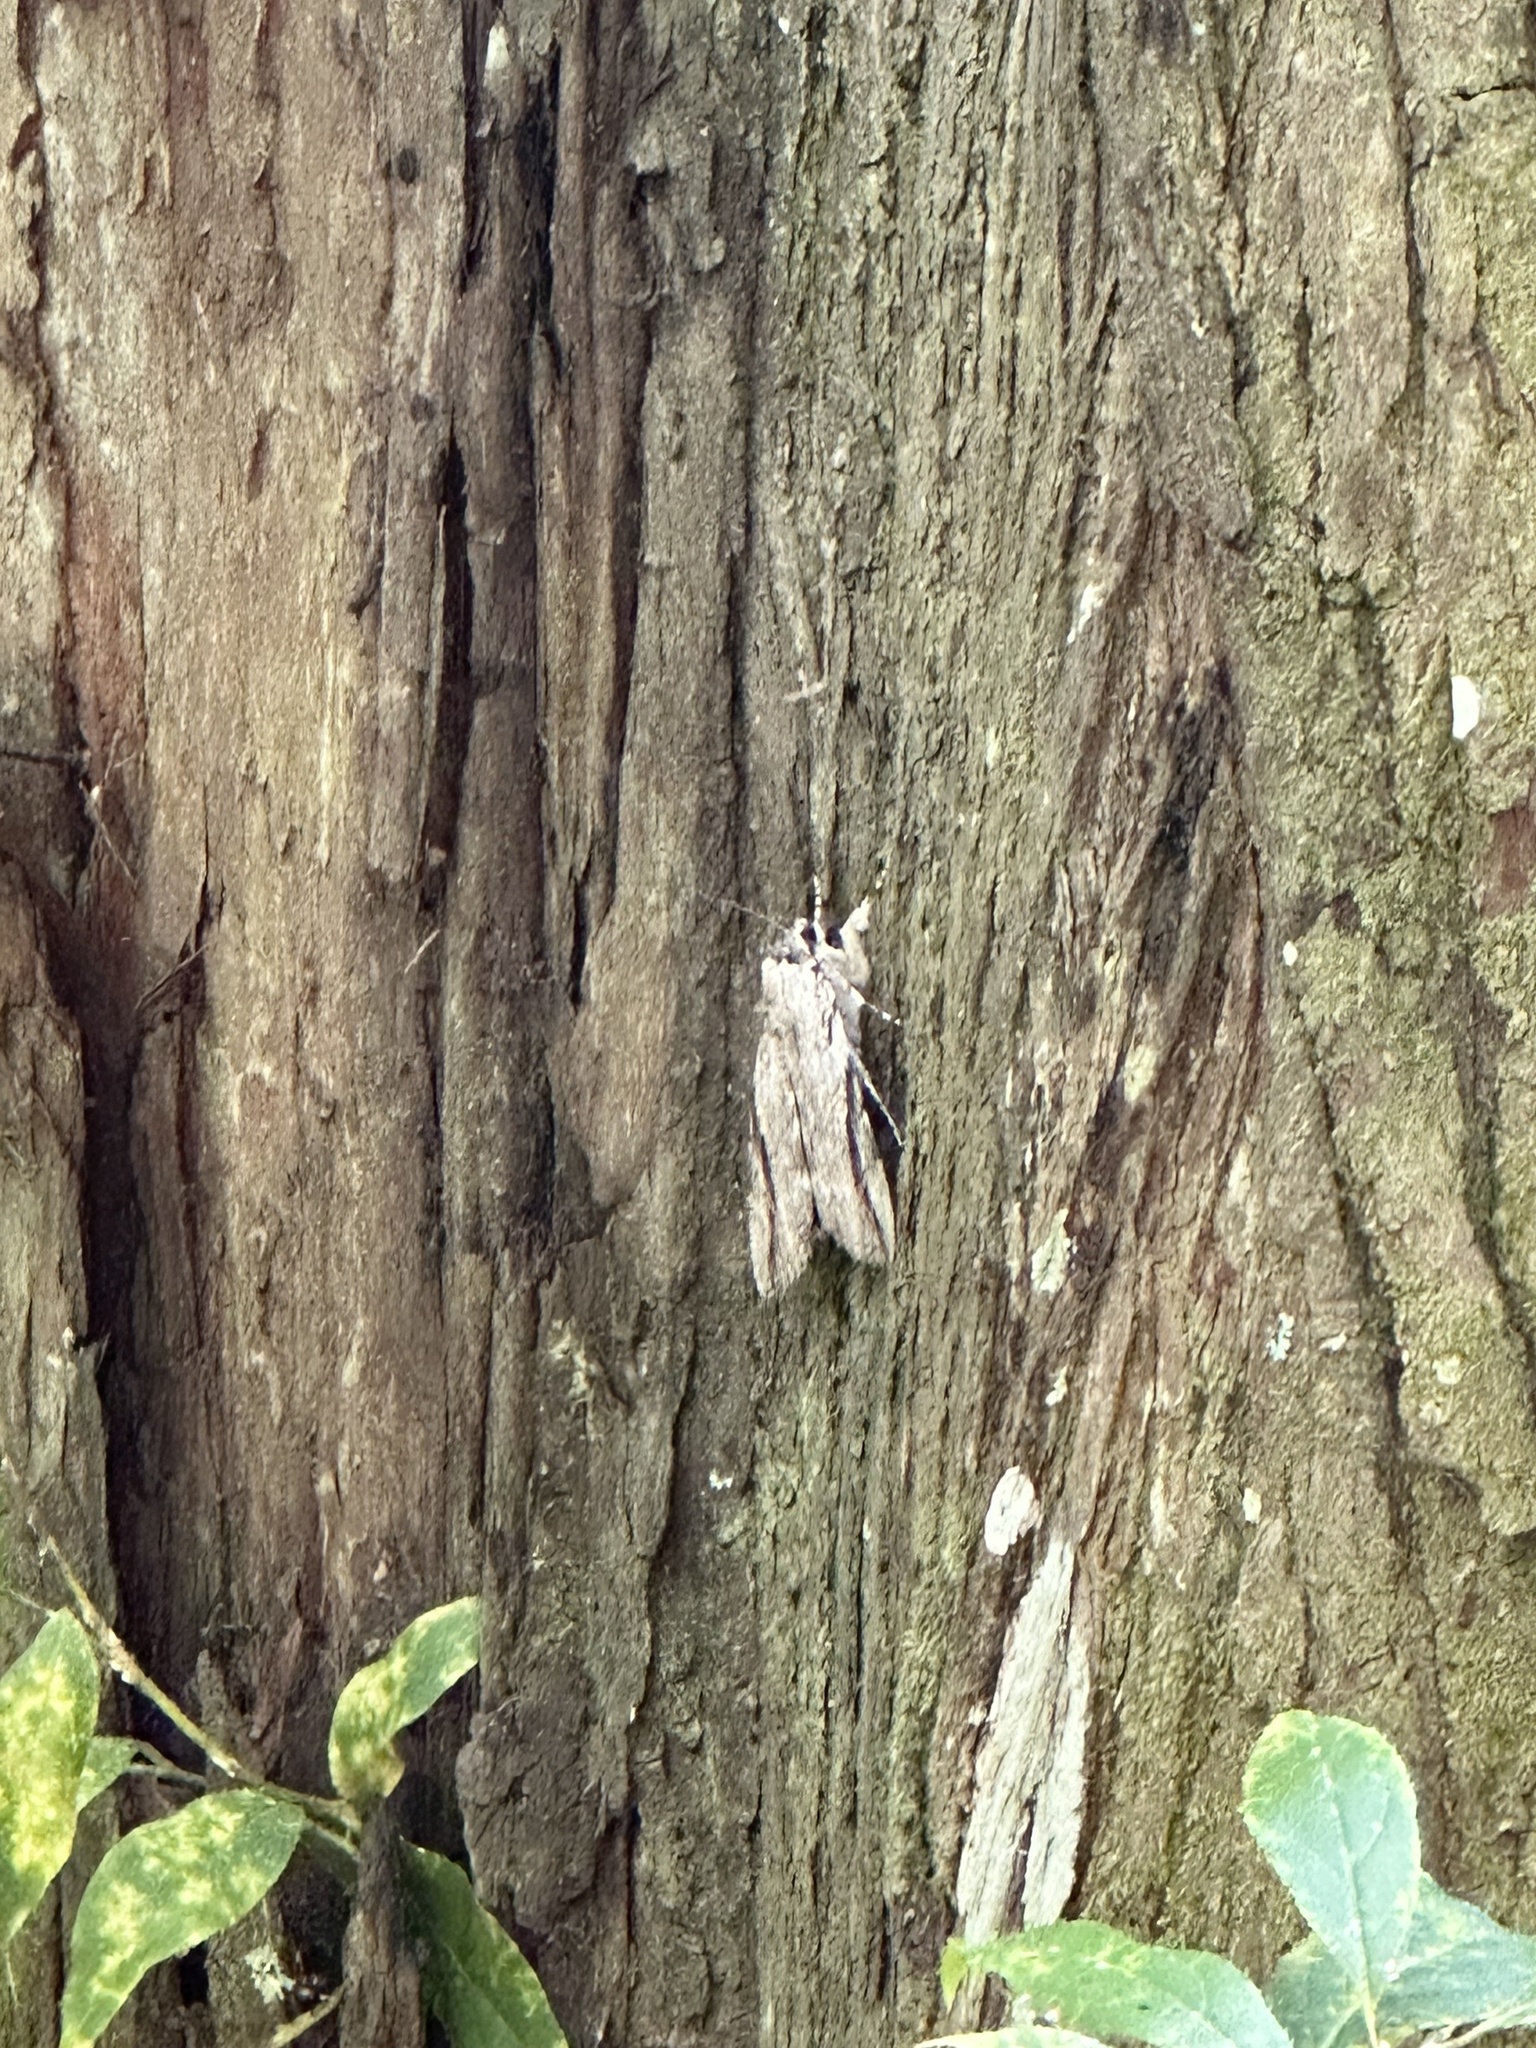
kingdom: Animalia
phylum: Arthropoda
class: Insecta
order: Lepidoptera
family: Erebidae
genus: Catocala
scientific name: Catocala maestosa
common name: Sad underwing
